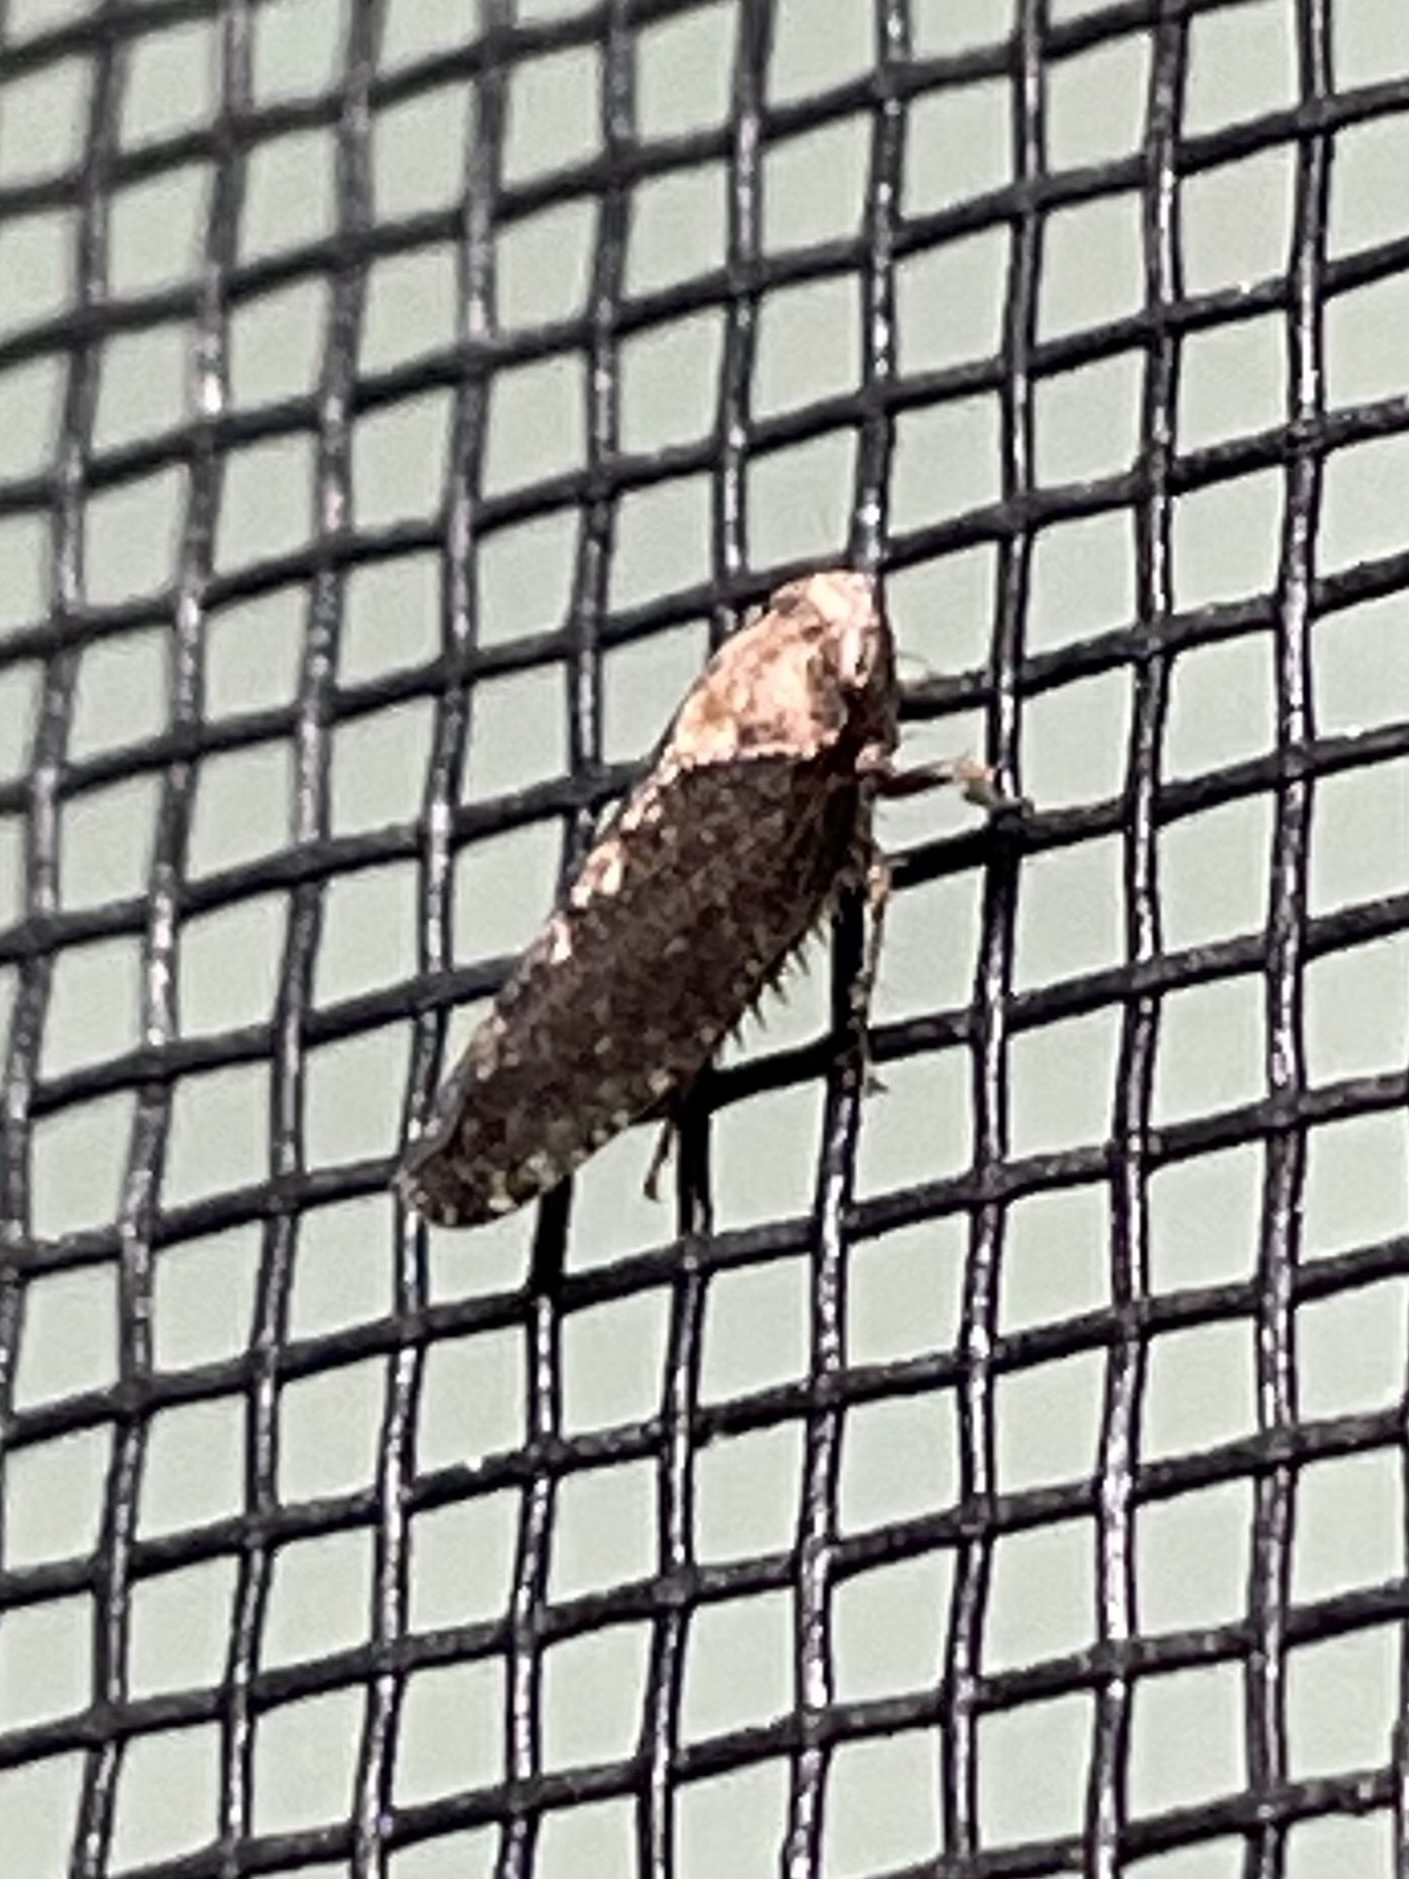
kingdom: Animalia
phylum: Arthropoda
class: Insecta
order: Hemiptera
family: Cicadellidae
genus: Excultanus
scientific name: Excultanus excultus
